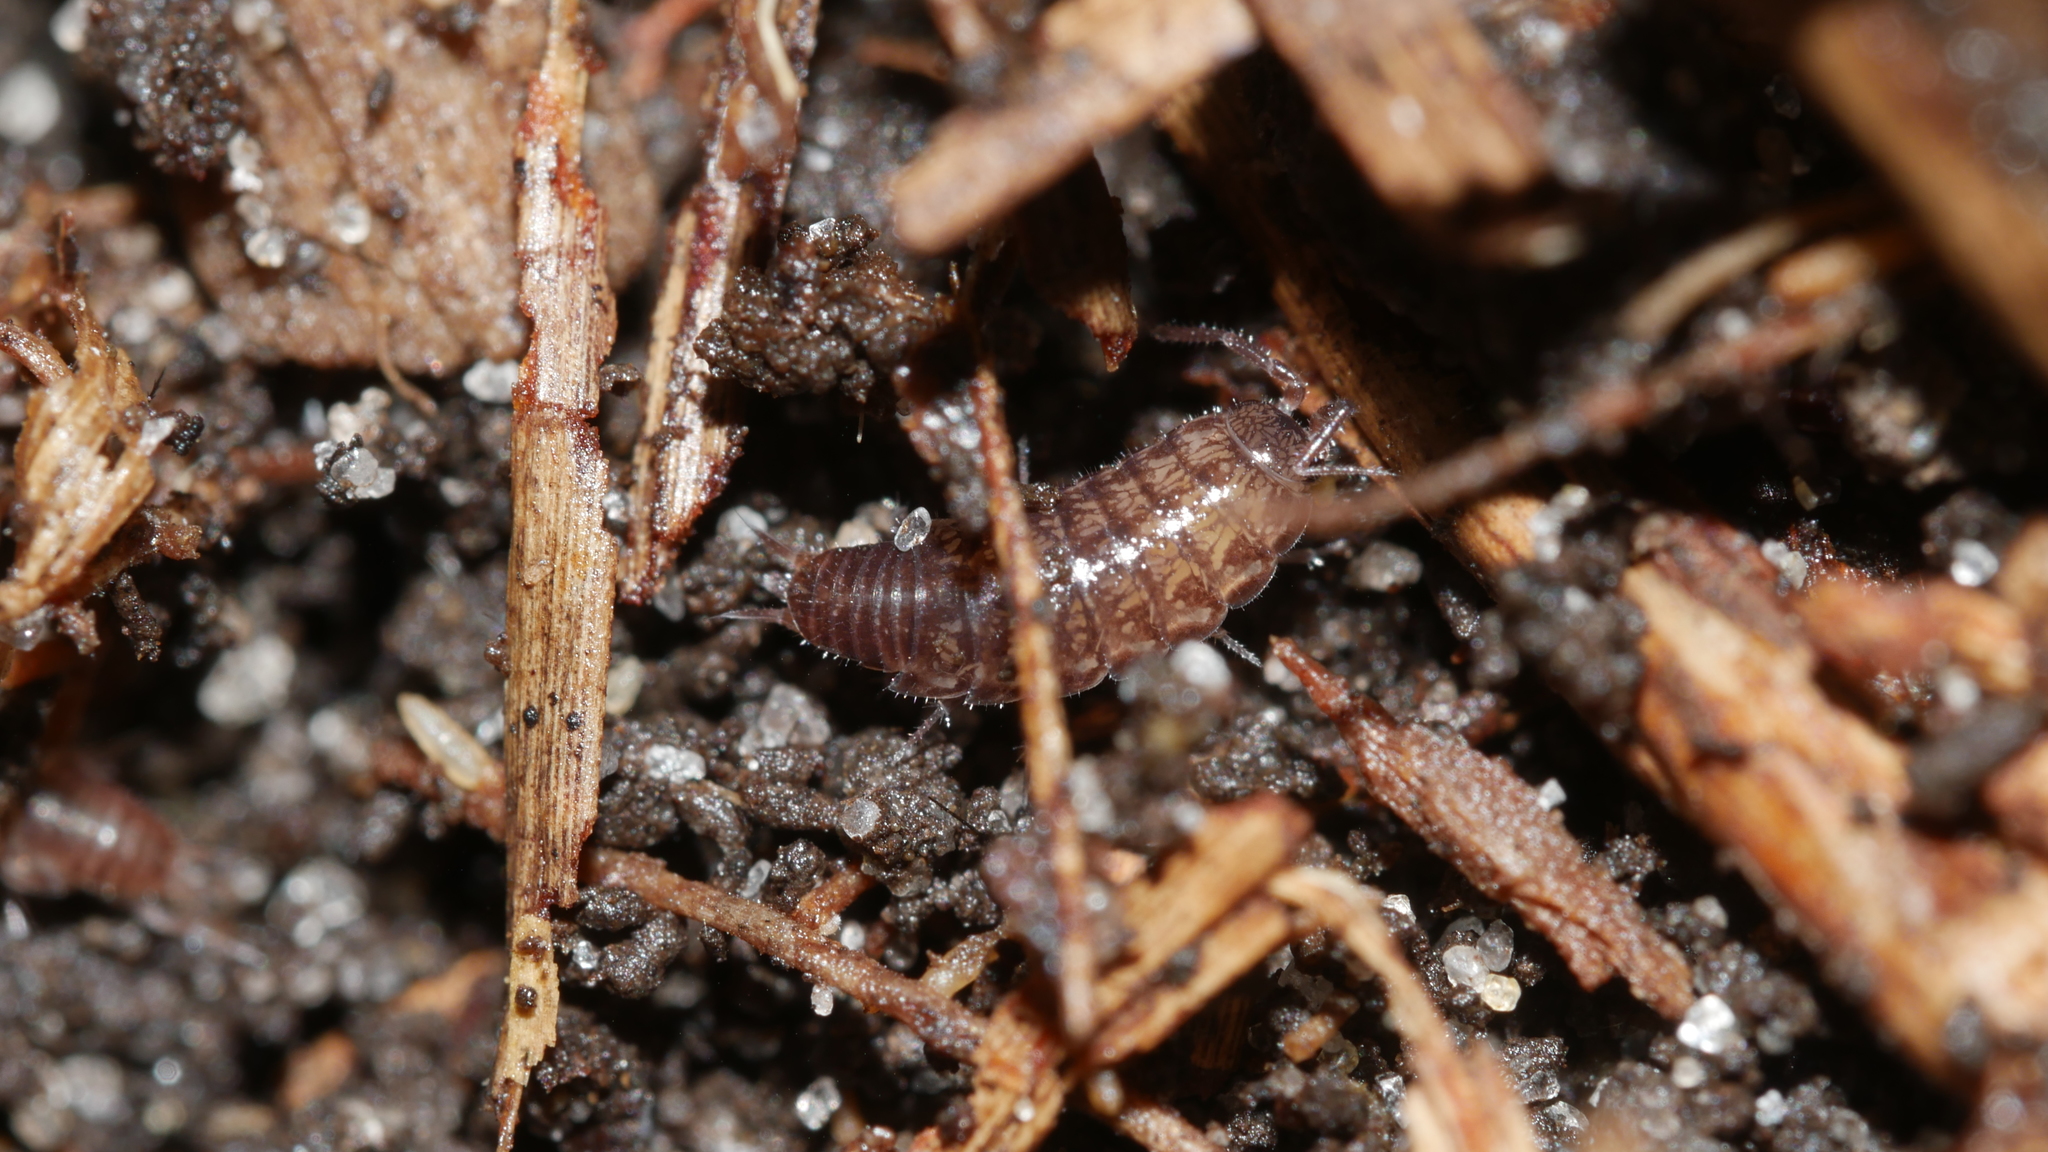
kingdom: Animalia
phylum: Arthropoda
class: Malacostraca
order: Isopoda
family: Philosciidae
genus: Chaetophiloscia
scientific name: Chaetophiloscia sicula
